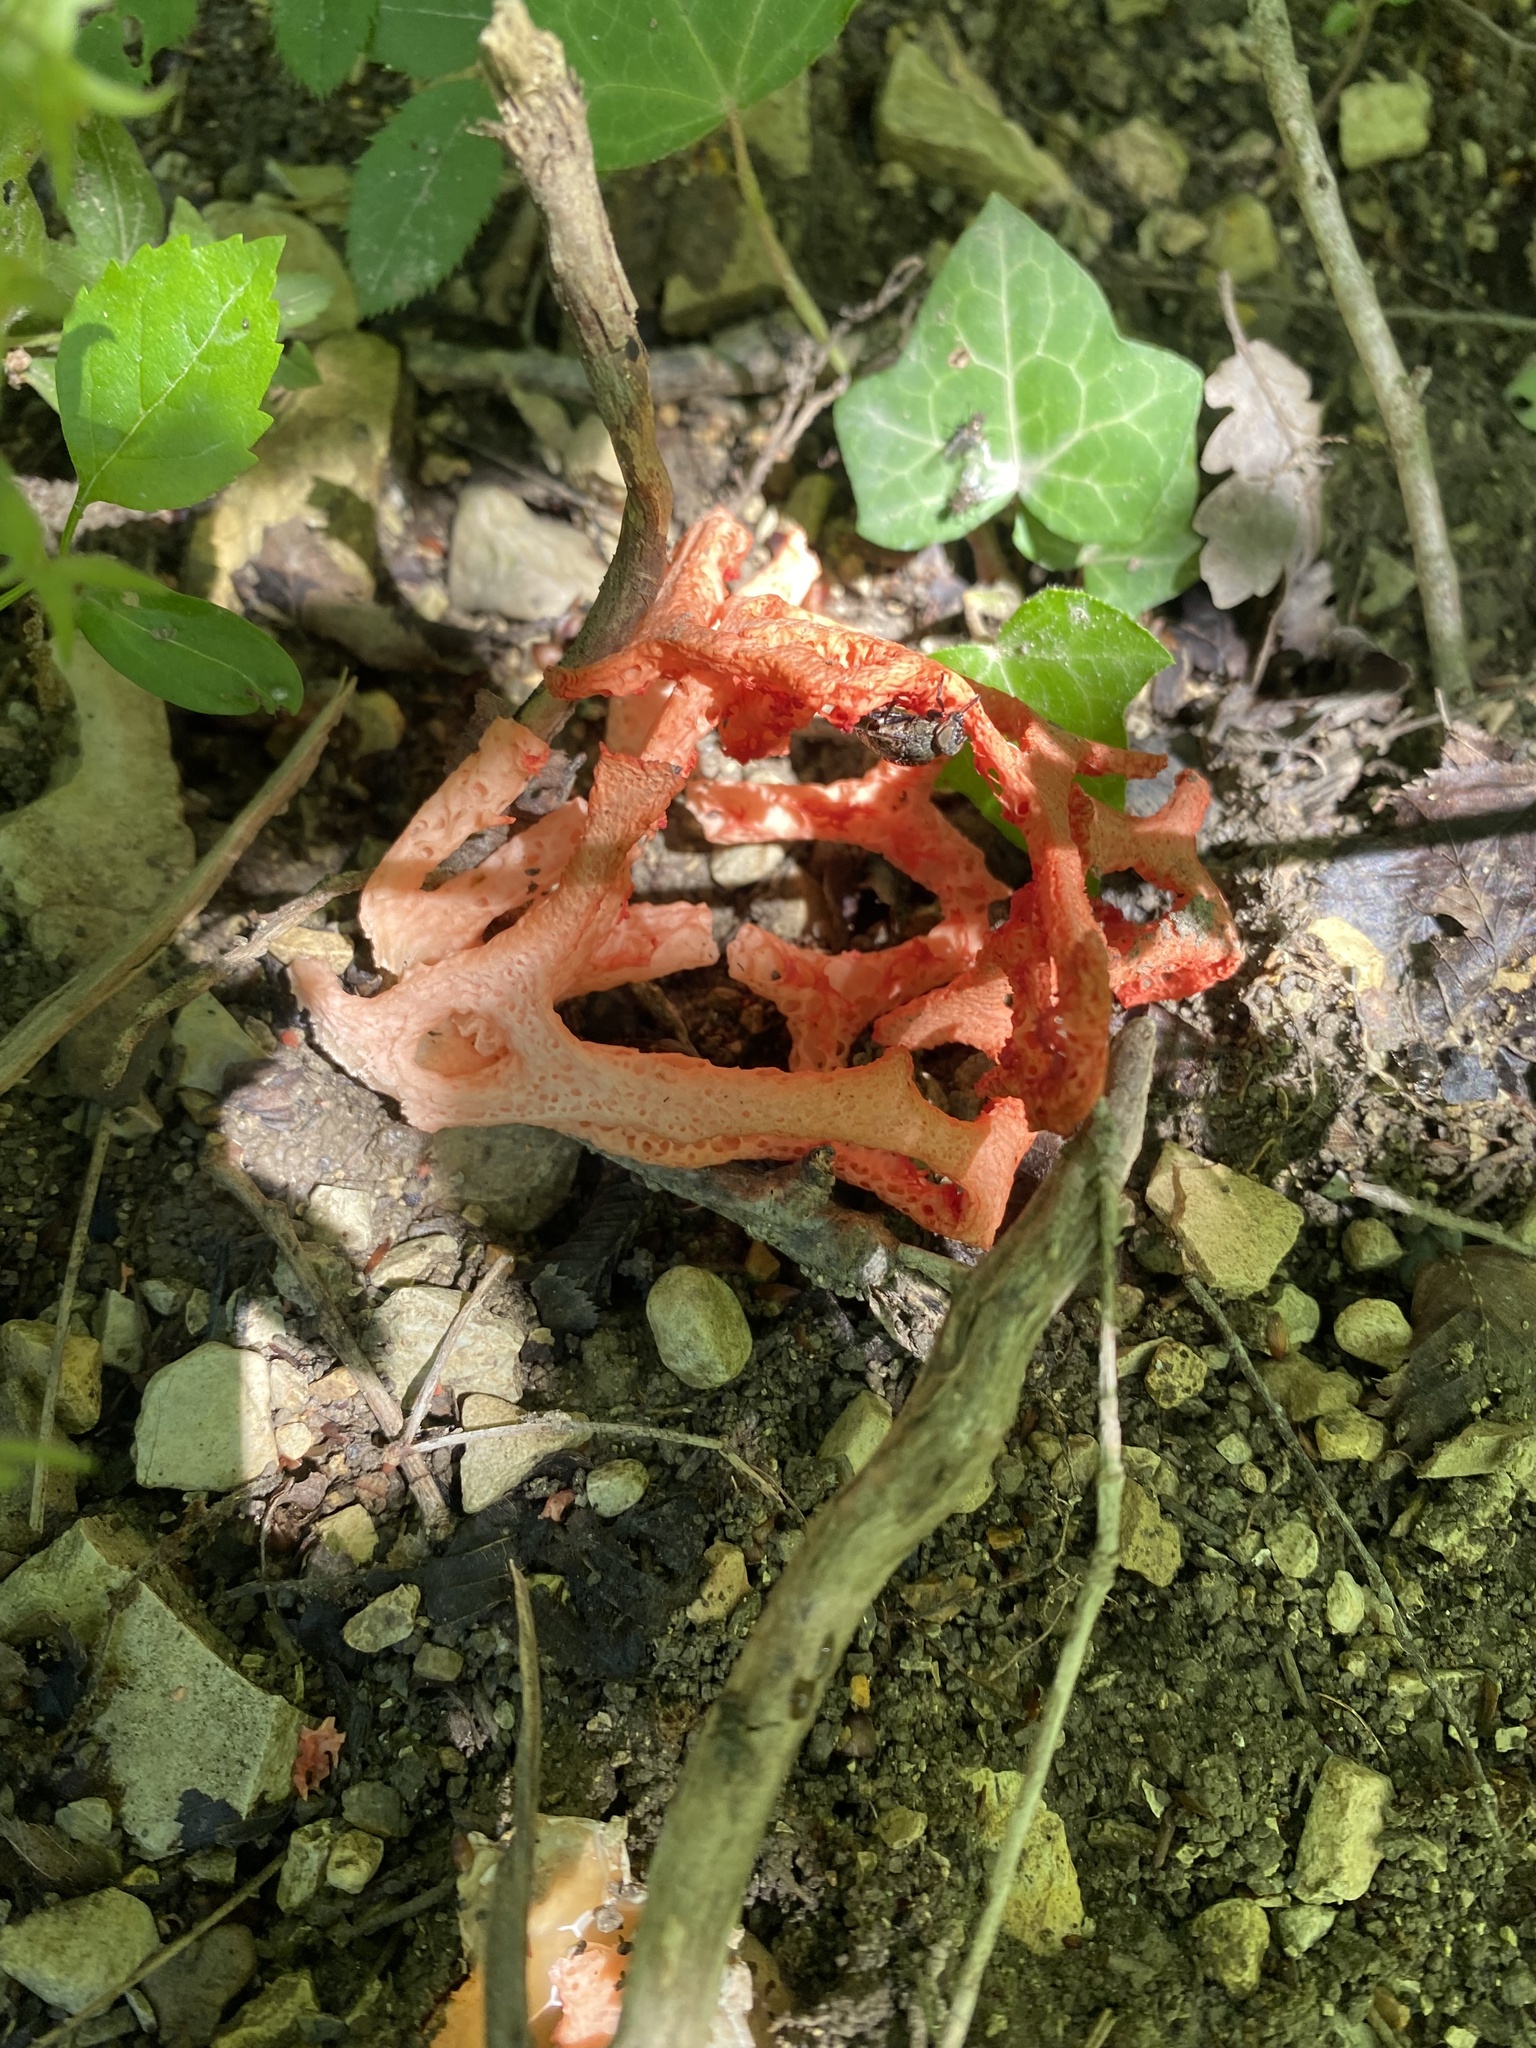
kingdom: Fungi
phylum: Basidiomycota
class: Agaricomycetes
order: Phallales
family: Phallaceae
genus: Clathrus
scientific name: Clathrus ruber
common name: Red cage
